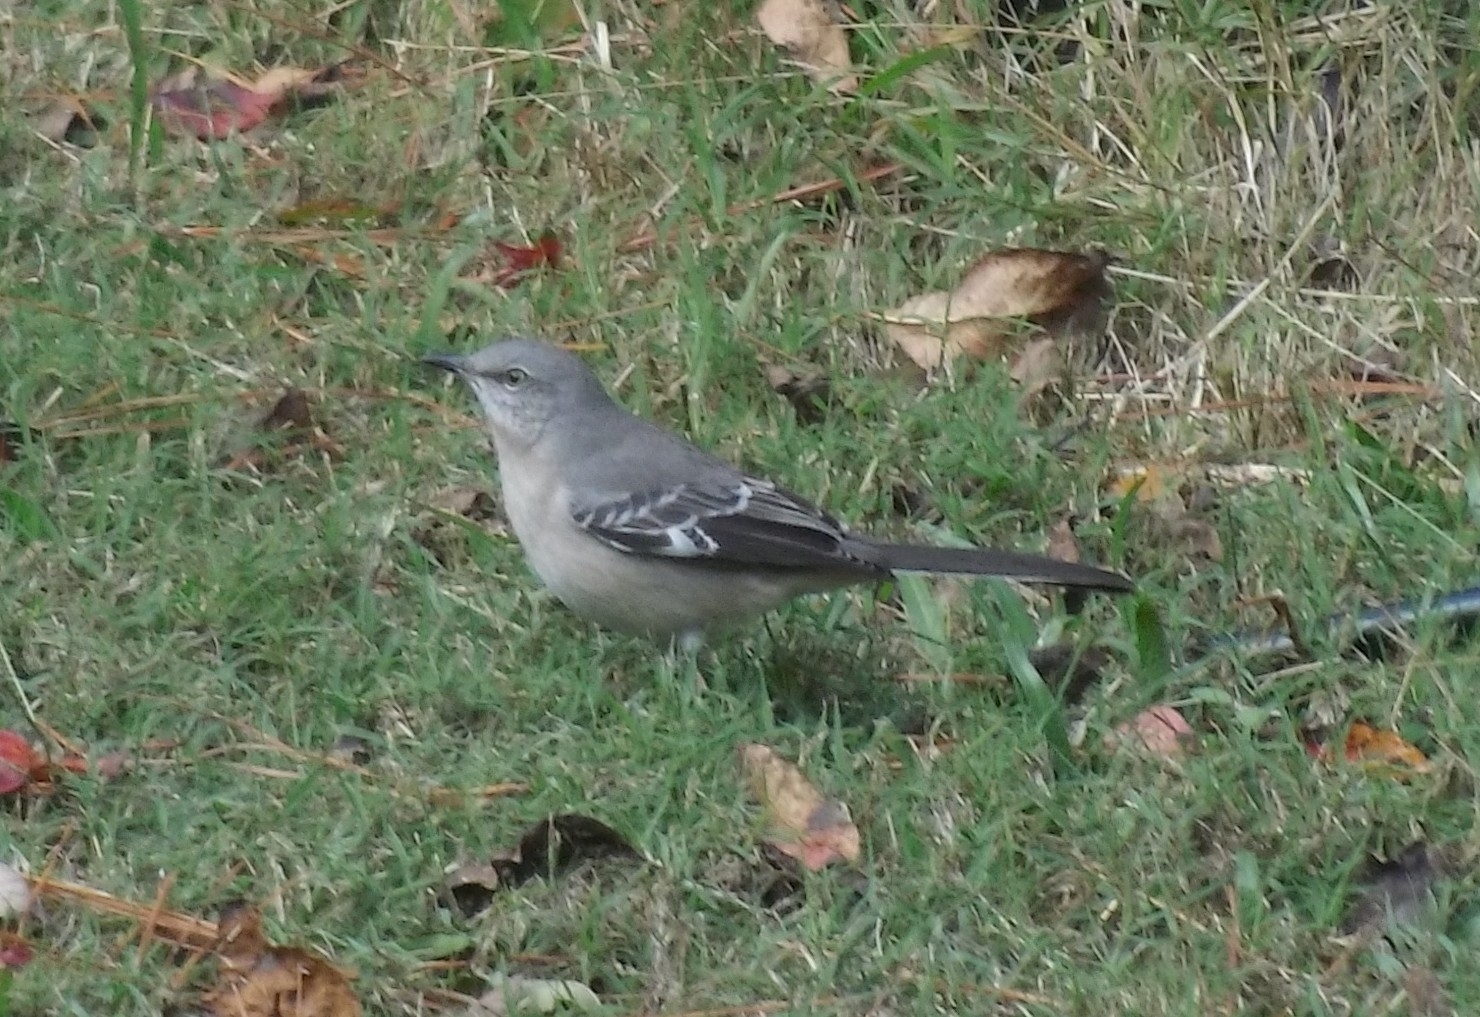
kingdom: Animalia
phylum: Chordata
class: Aves
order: Passeriformes
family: Mimidae
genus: Mimus
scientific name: Mimus polyglottos
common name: Northern mockingbird
